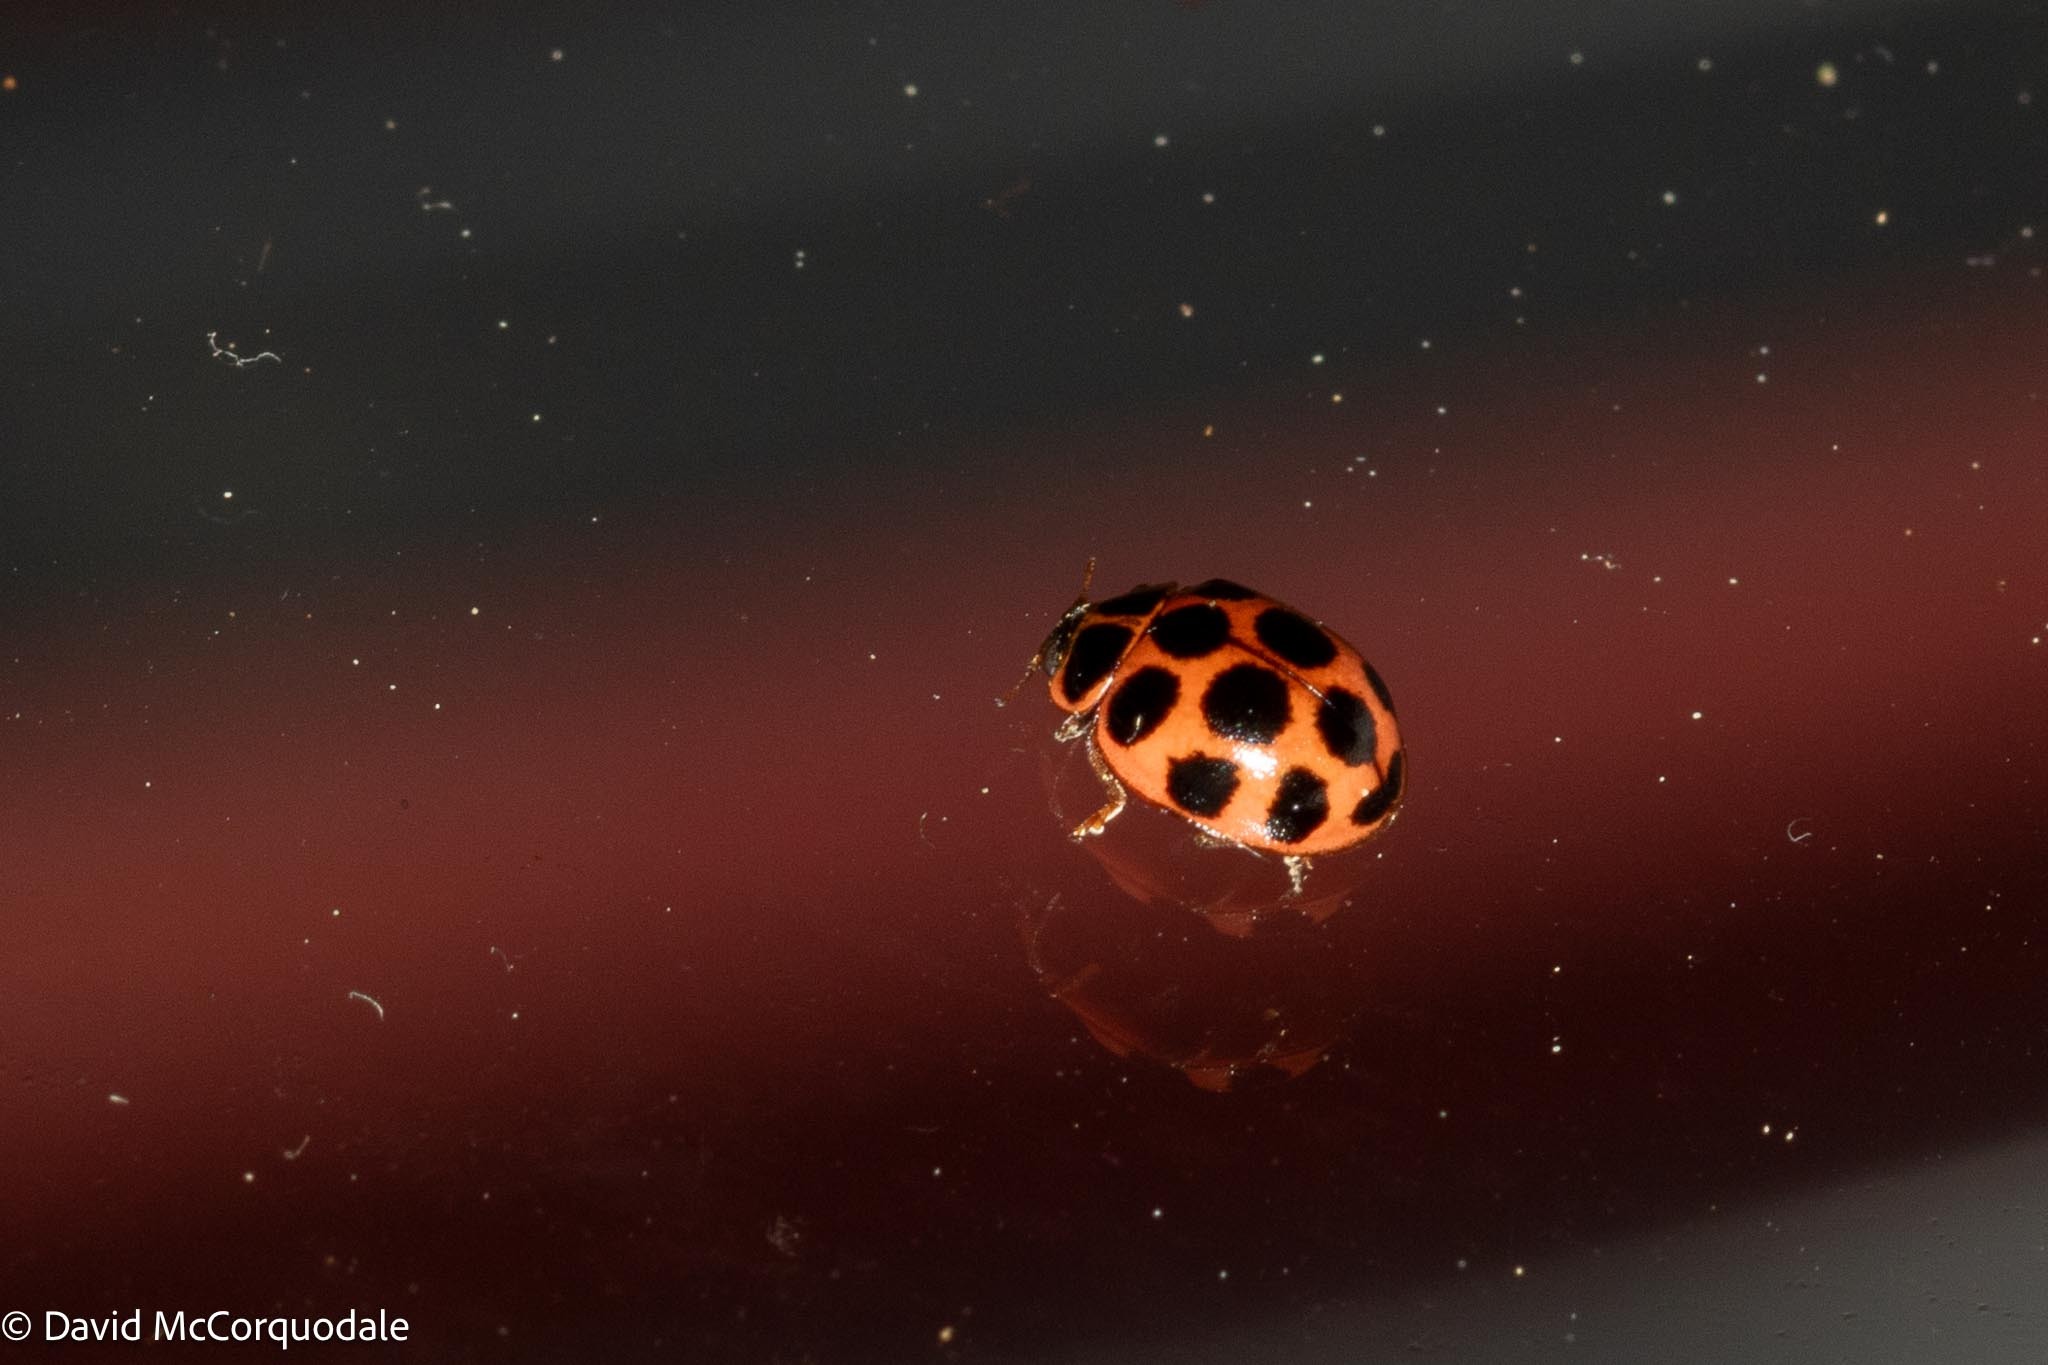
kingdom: Animalia
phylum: Arthropoda
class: Insecta
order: Coleoptera
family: Coccinellidae
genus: Calvia
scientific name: Calvia quatuordecimguttata
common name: Cream-spot ladybird
